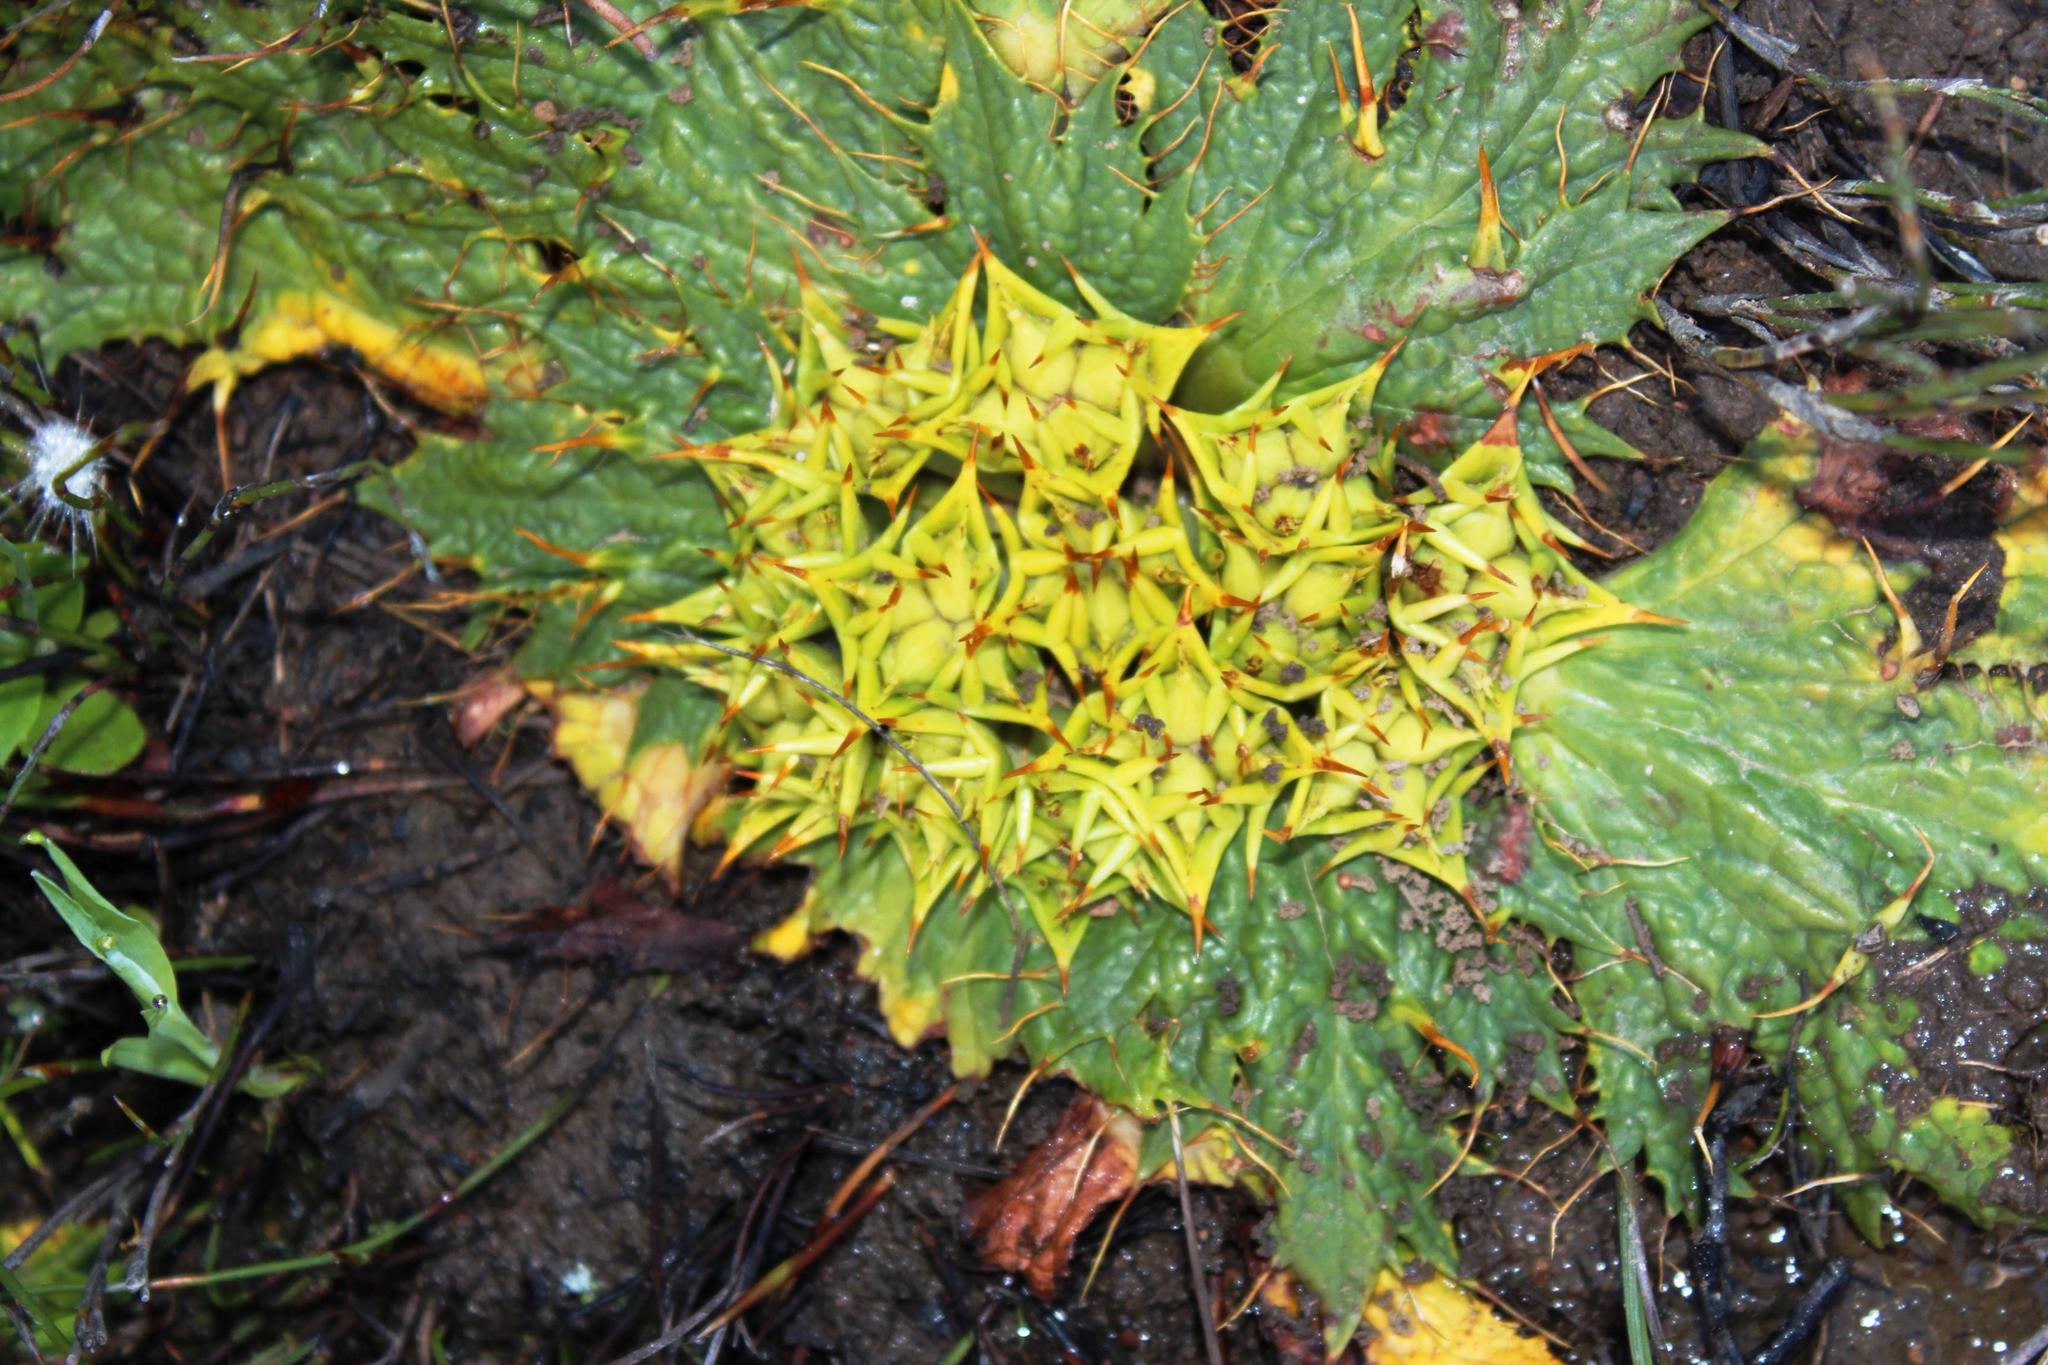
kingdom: Plantae
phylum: Tracheophyta
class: Magnoliopsida
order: Apiales
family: Apiaceae
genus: Arctopus
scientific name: Arctopus echinatus
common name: Platdoring
